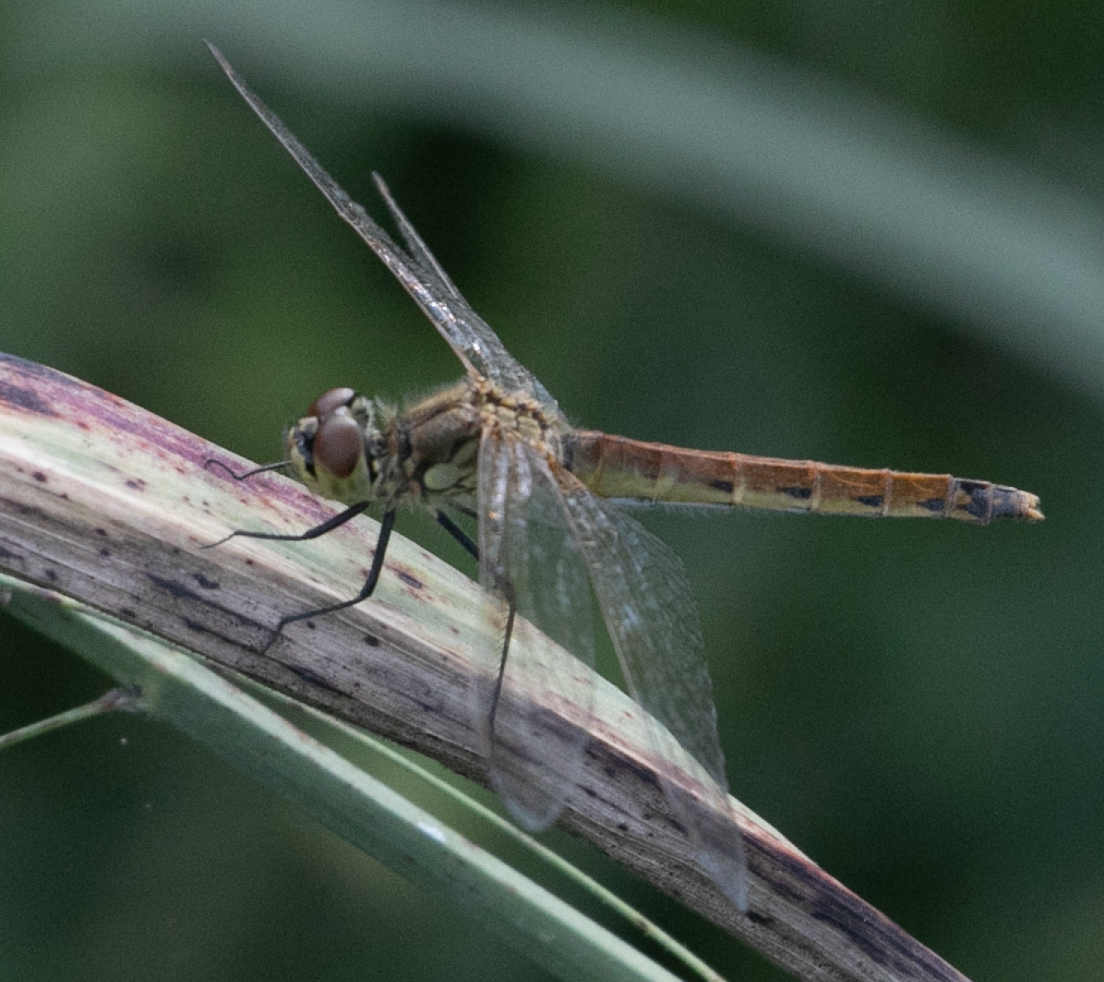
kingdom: Animalia
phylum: Arthropoda
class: Insecta
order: Odonata
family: Libellulidae
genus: Sympetrum
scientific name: Sympetrum depressiusculum
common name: Spotted darter
